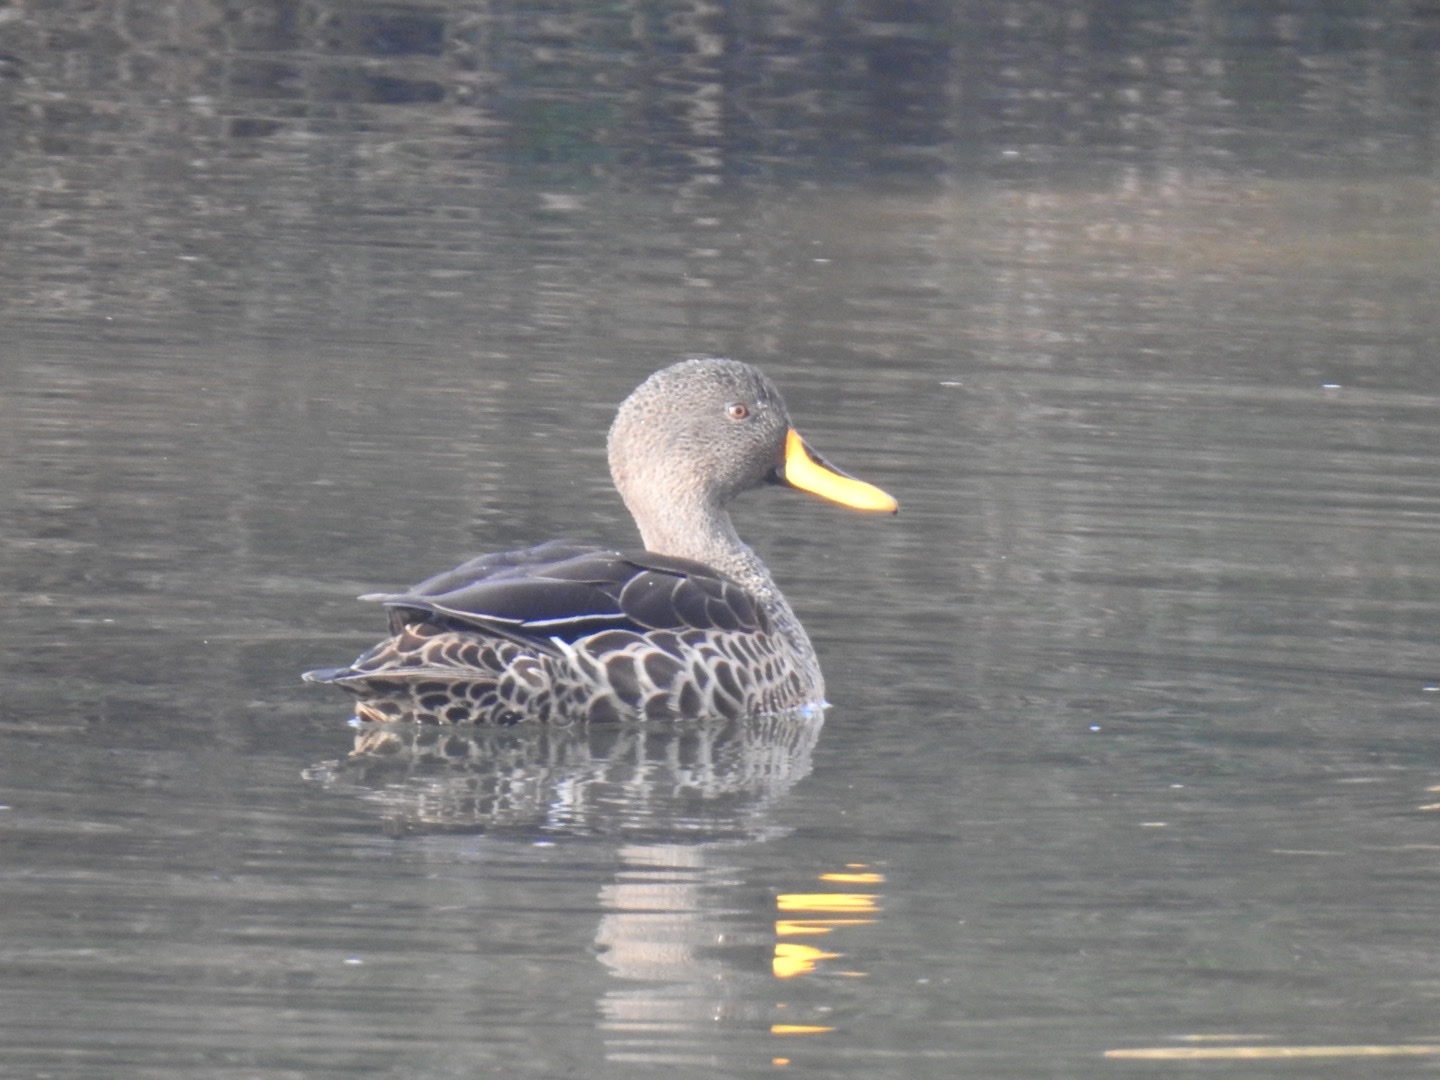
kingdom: Animalia
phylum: Chordata
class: Aves
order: Anseriformes
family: Anatidae
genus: Anas
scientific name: Anas undulata
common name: Yellow-billed duck
